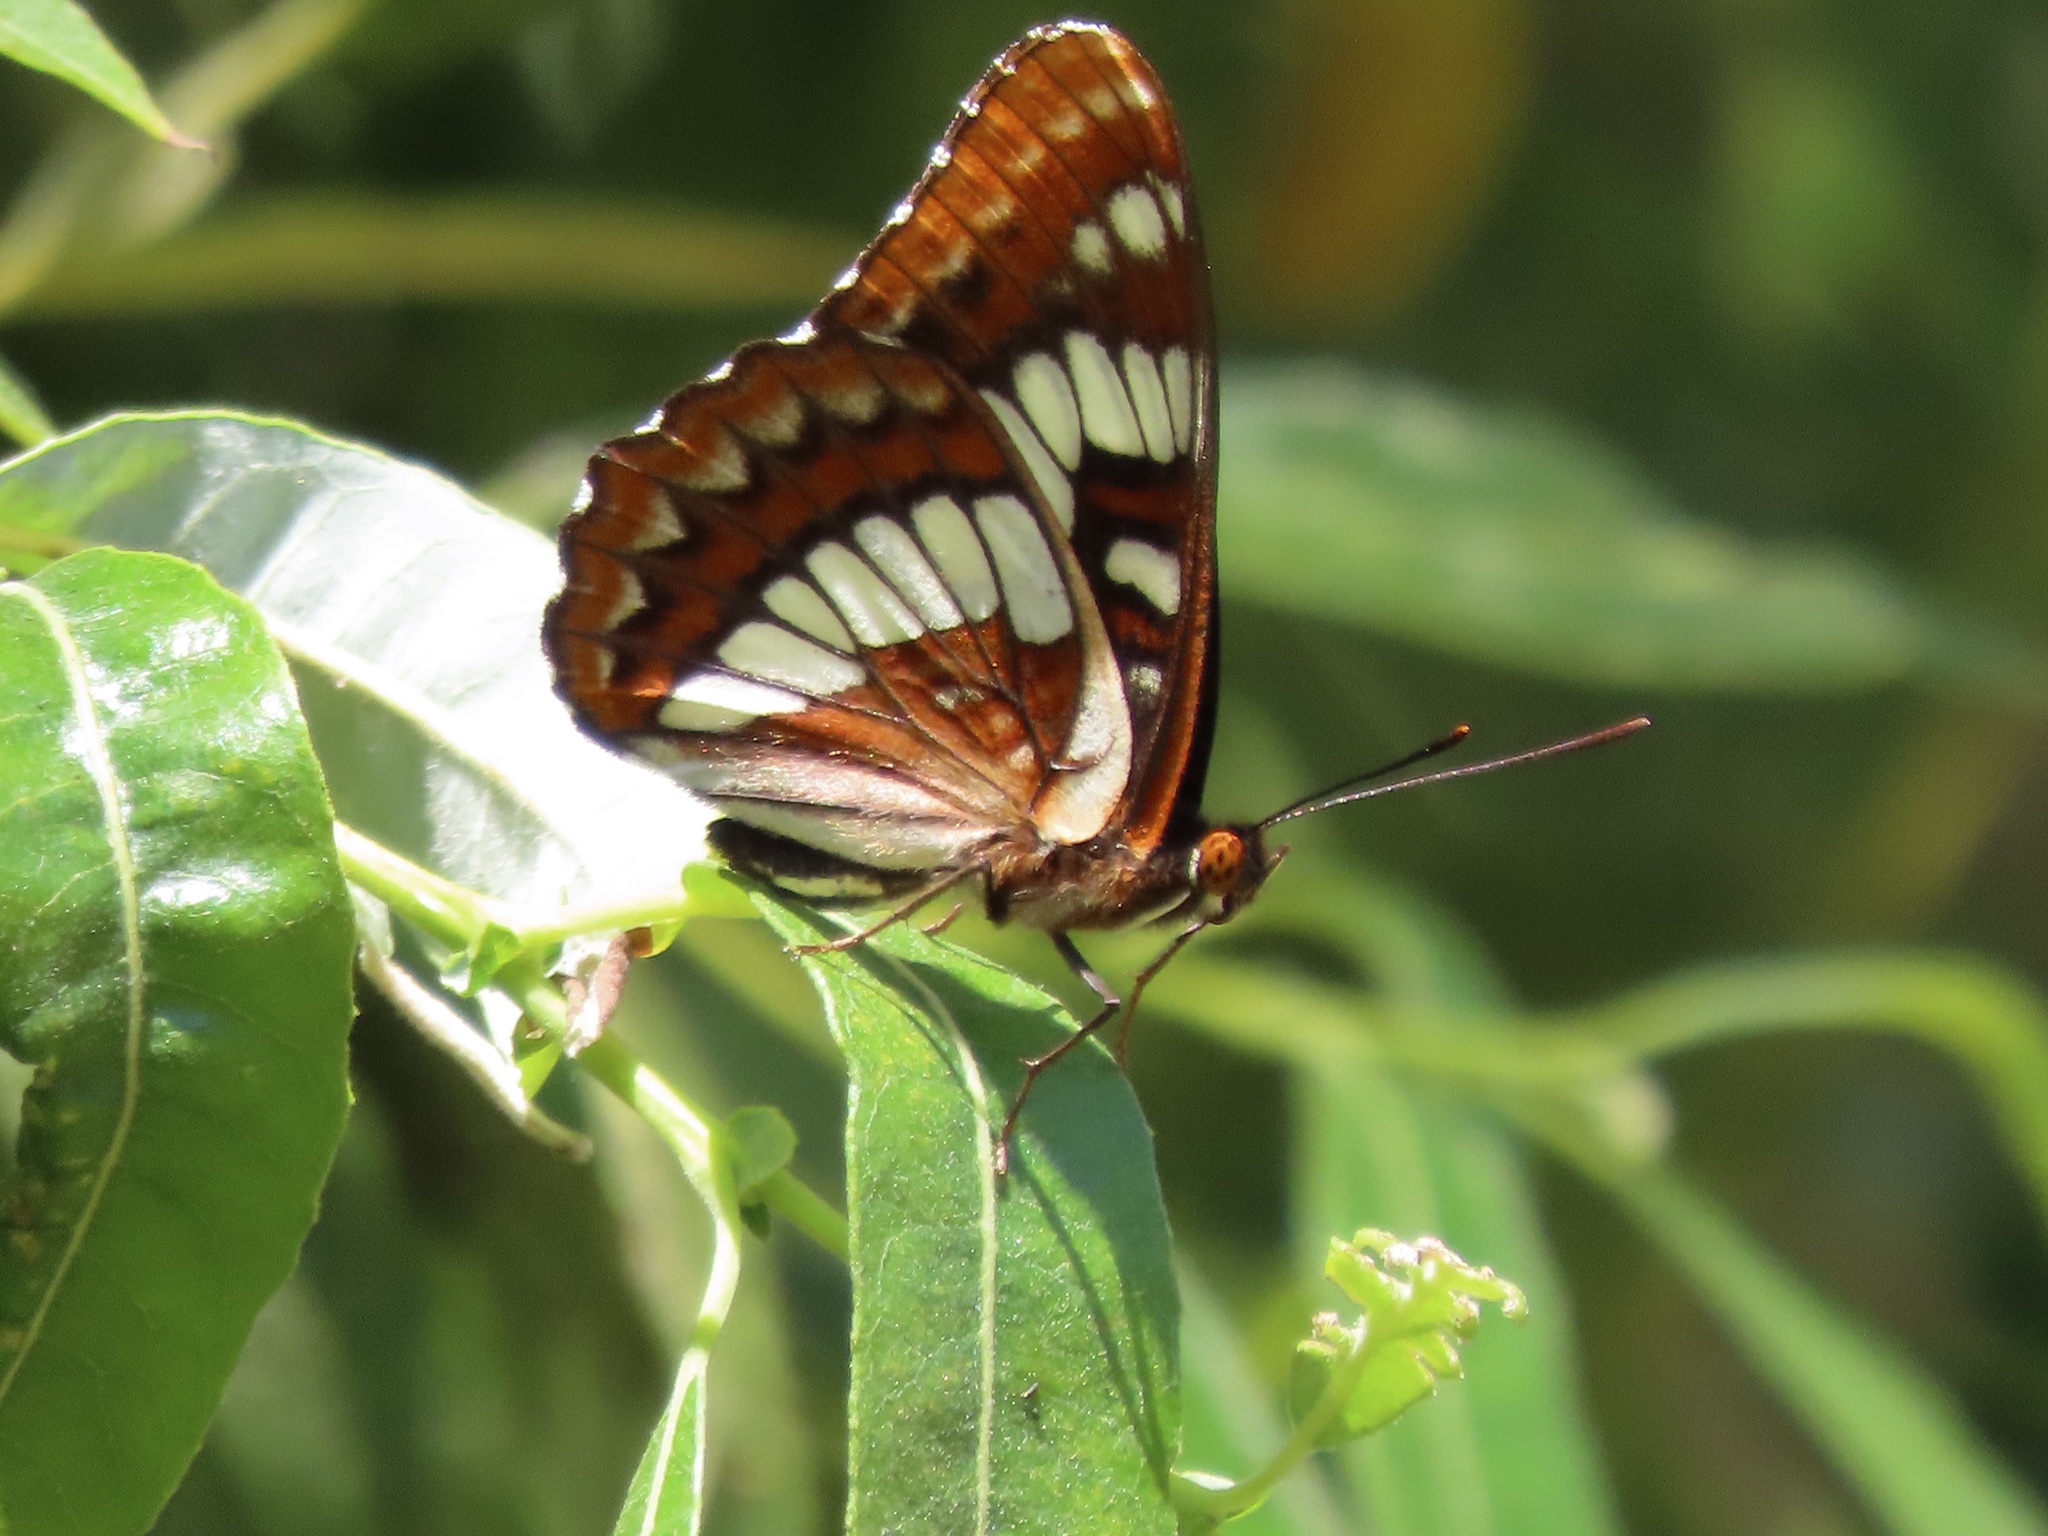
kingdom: Animalia
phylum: Arthropoda
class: Insecta
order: Lepidoptera
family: Nymphalidae
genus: Limenitis
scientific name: Limenitis lorquini
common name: Lorquin's admiral
